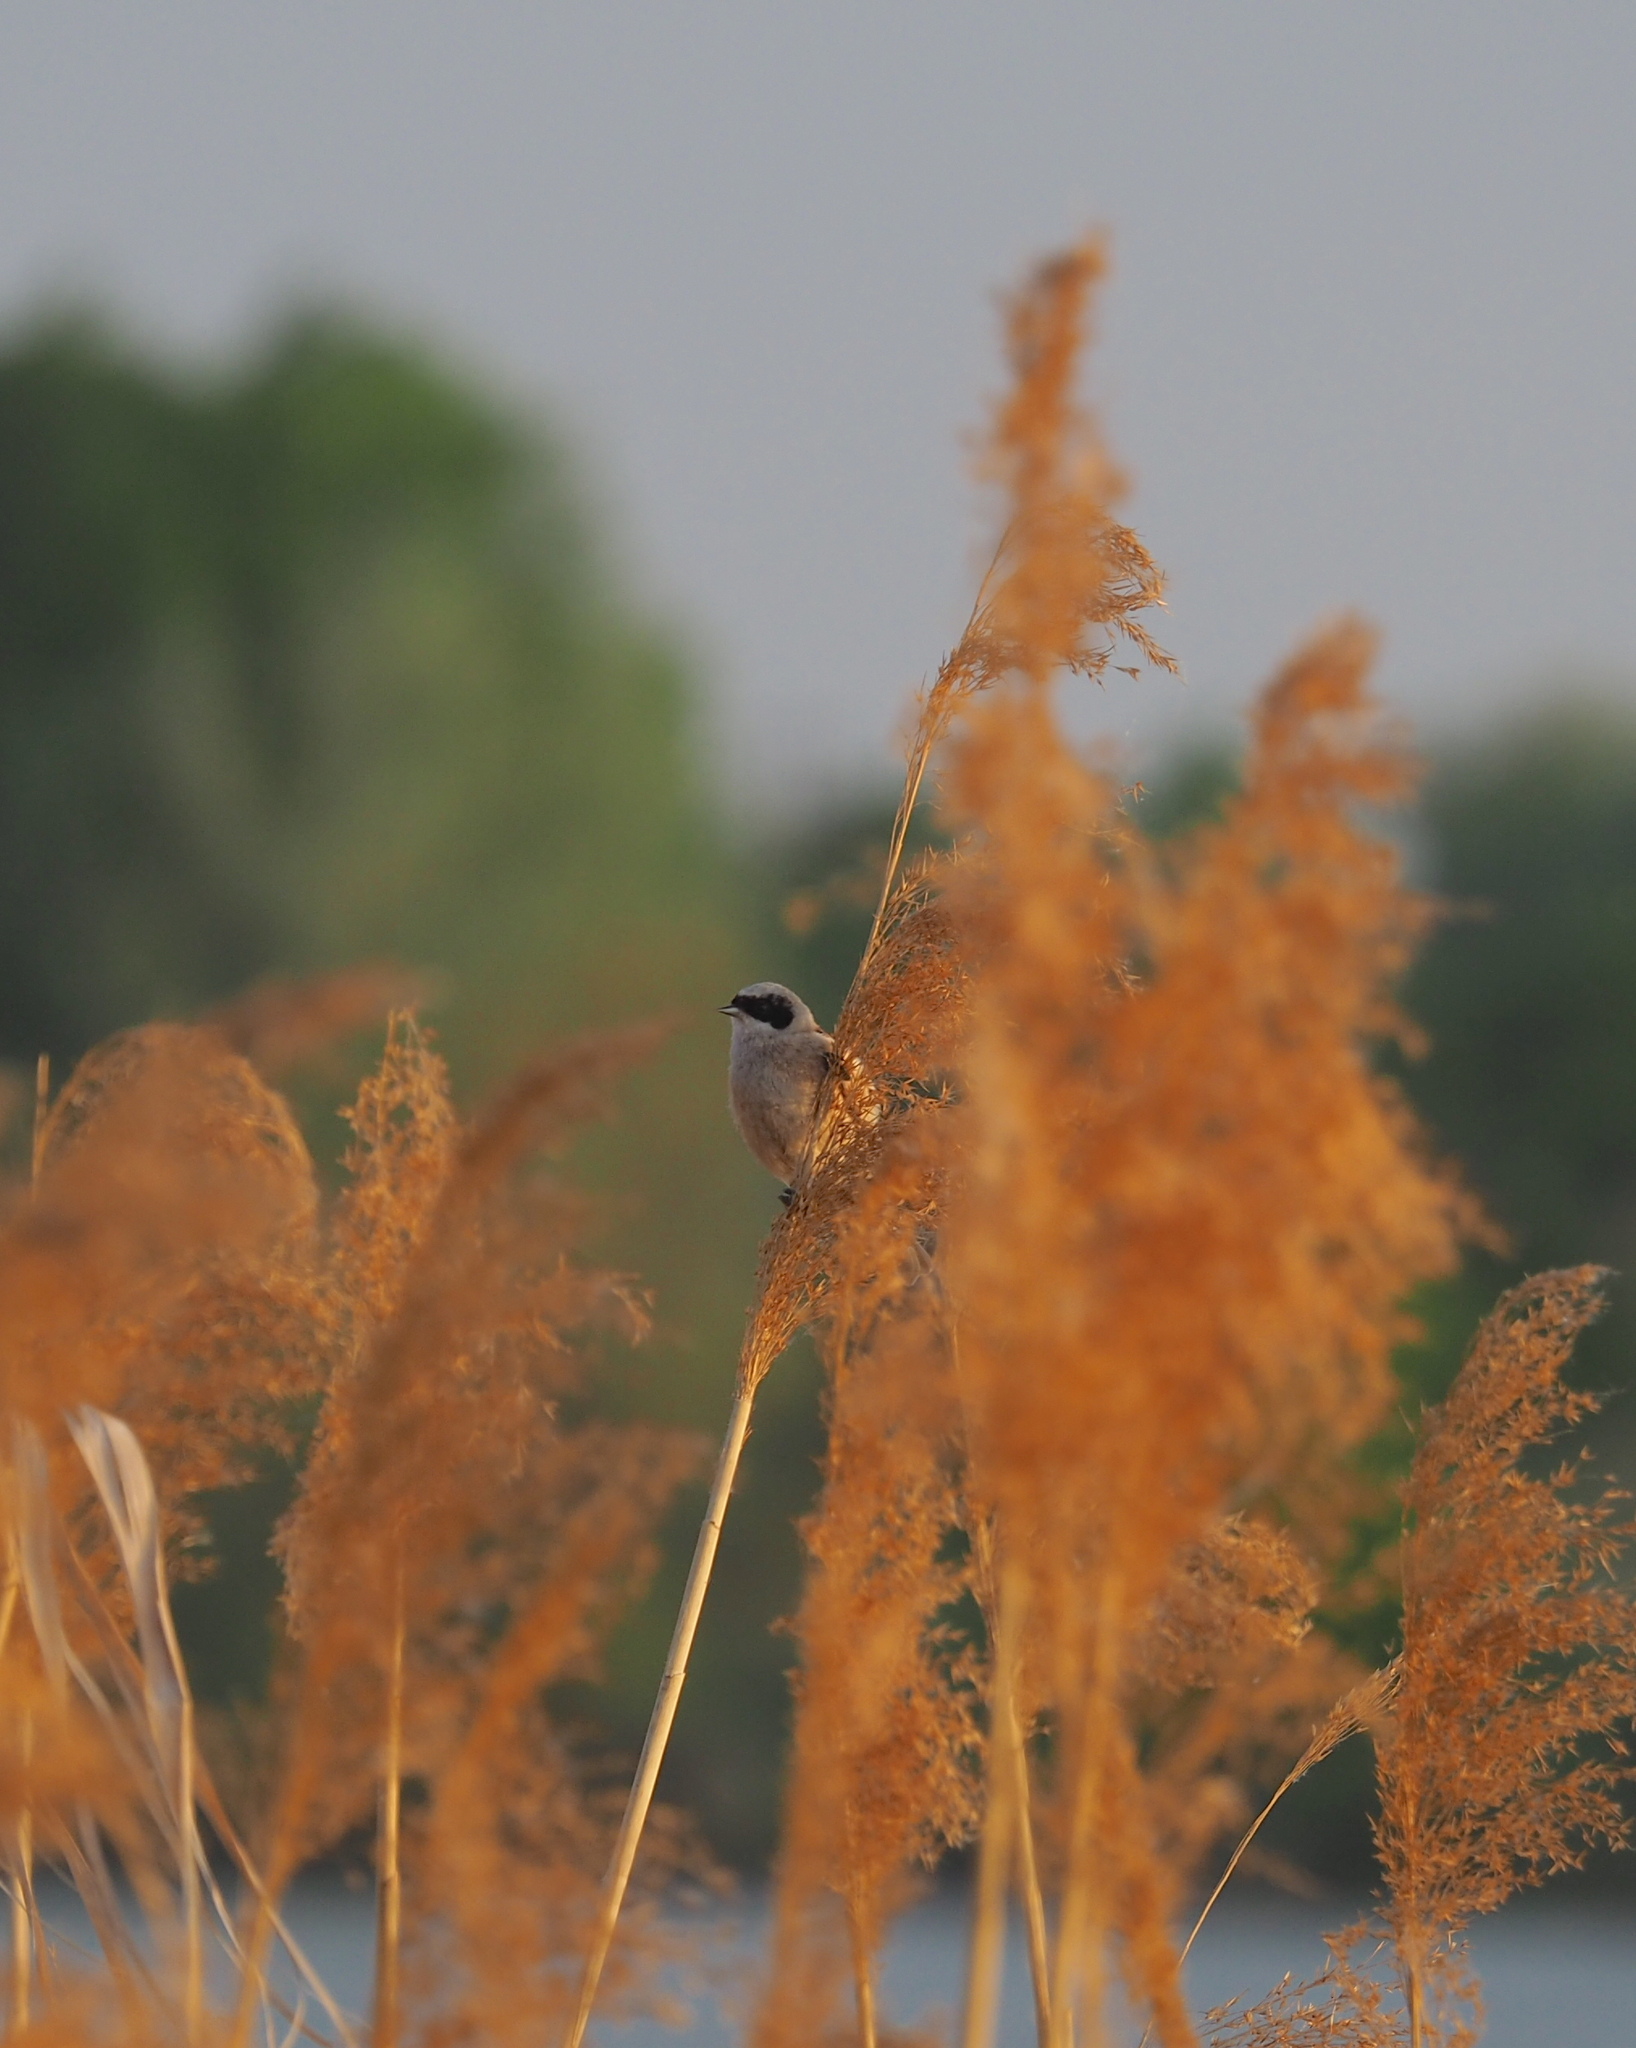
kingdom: Animalia
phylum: Chordata
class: Aves
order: Passeriformes
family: Remizidae
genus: Remiz
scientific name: Remiz pendulinus
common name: Eurasian penduline tit
